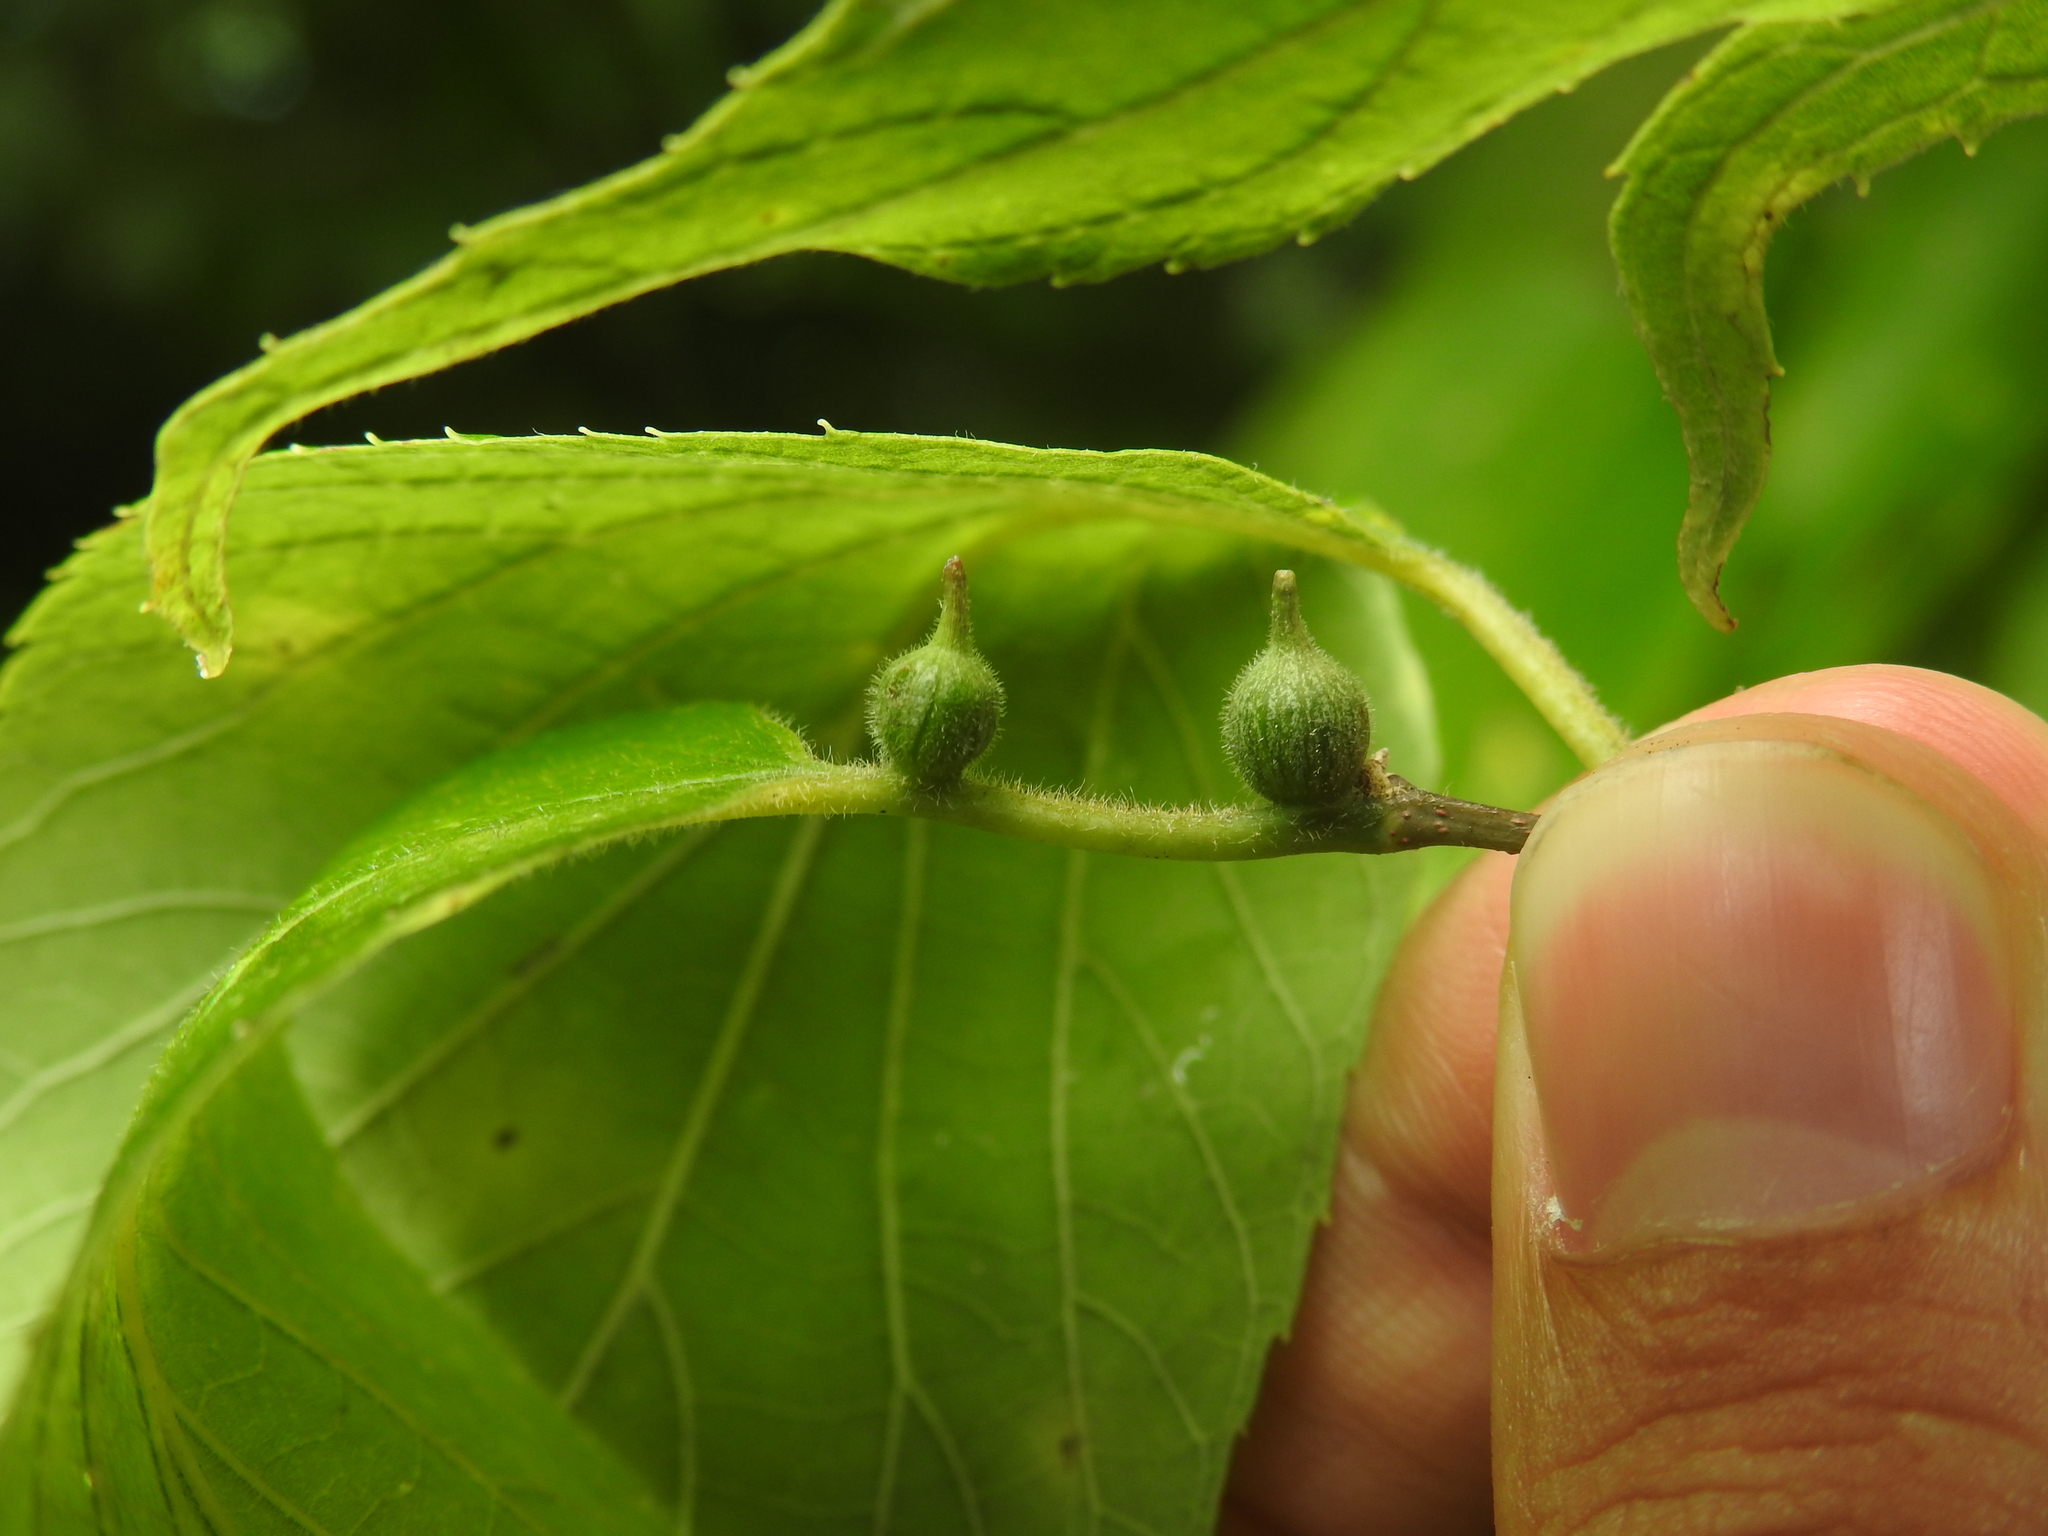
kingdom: Animalia
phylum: Arthropoda
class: Insecta
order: Diptera
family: Cecidomyiidae
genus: Celticecis
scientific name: Celticecis ovata
